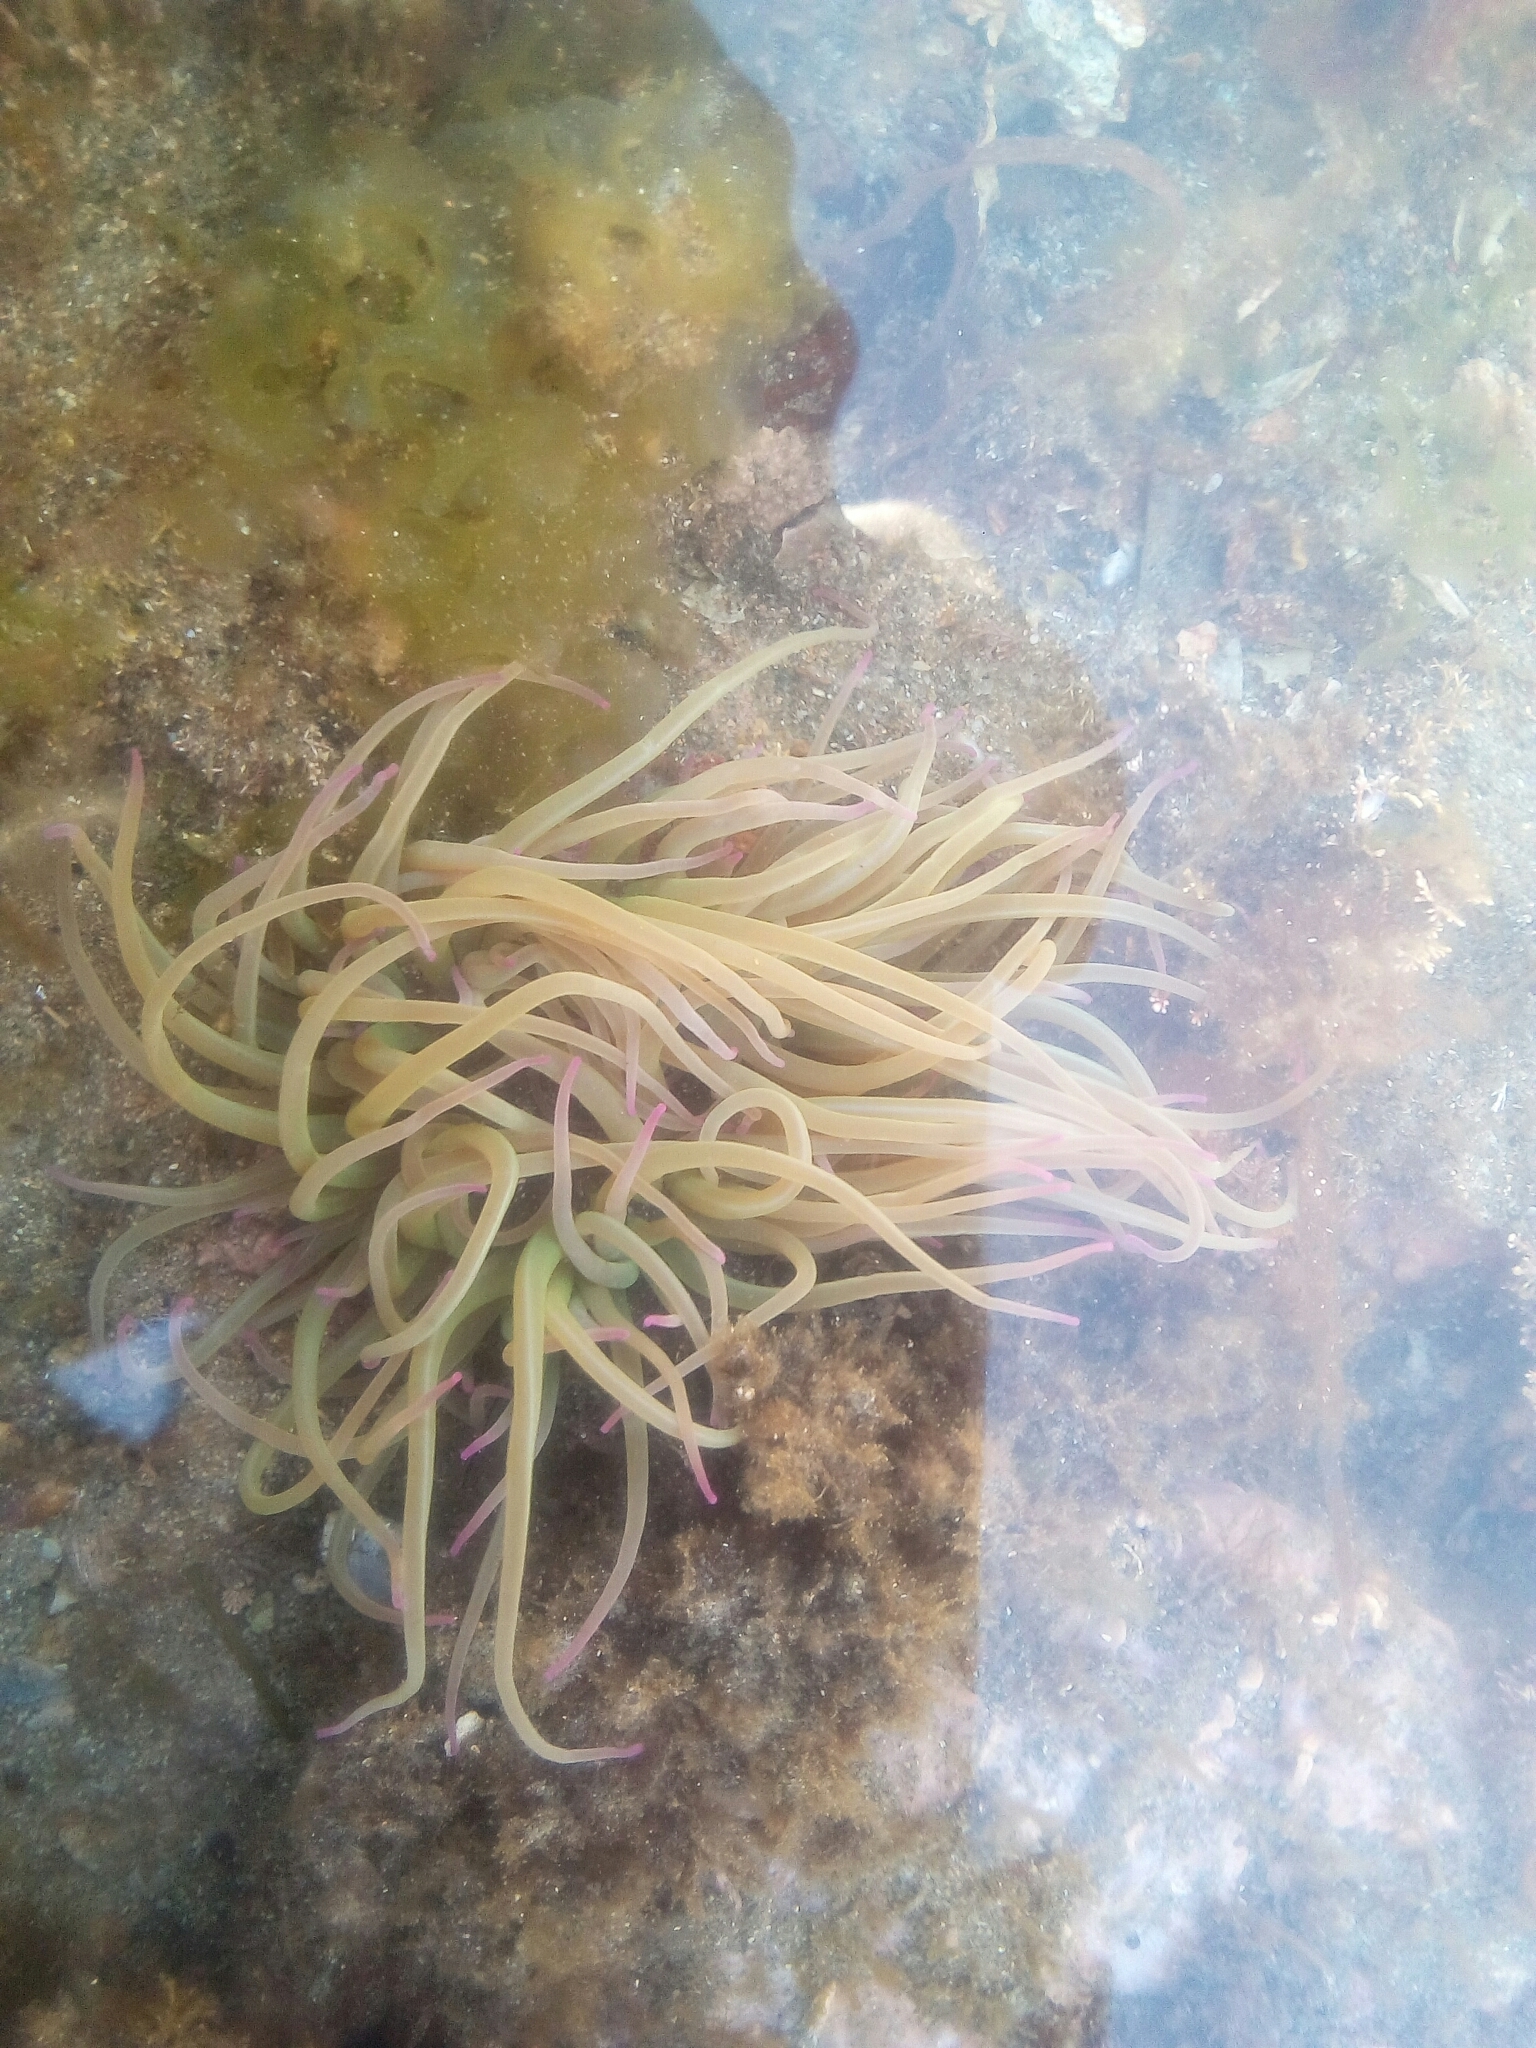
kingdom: Animalia
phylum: Cnidaria
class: Anthozoa
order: Actiniaria
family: Actiniidae
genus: Anemonia
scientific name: Anemonia viridis
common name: Snakelocks anemone
